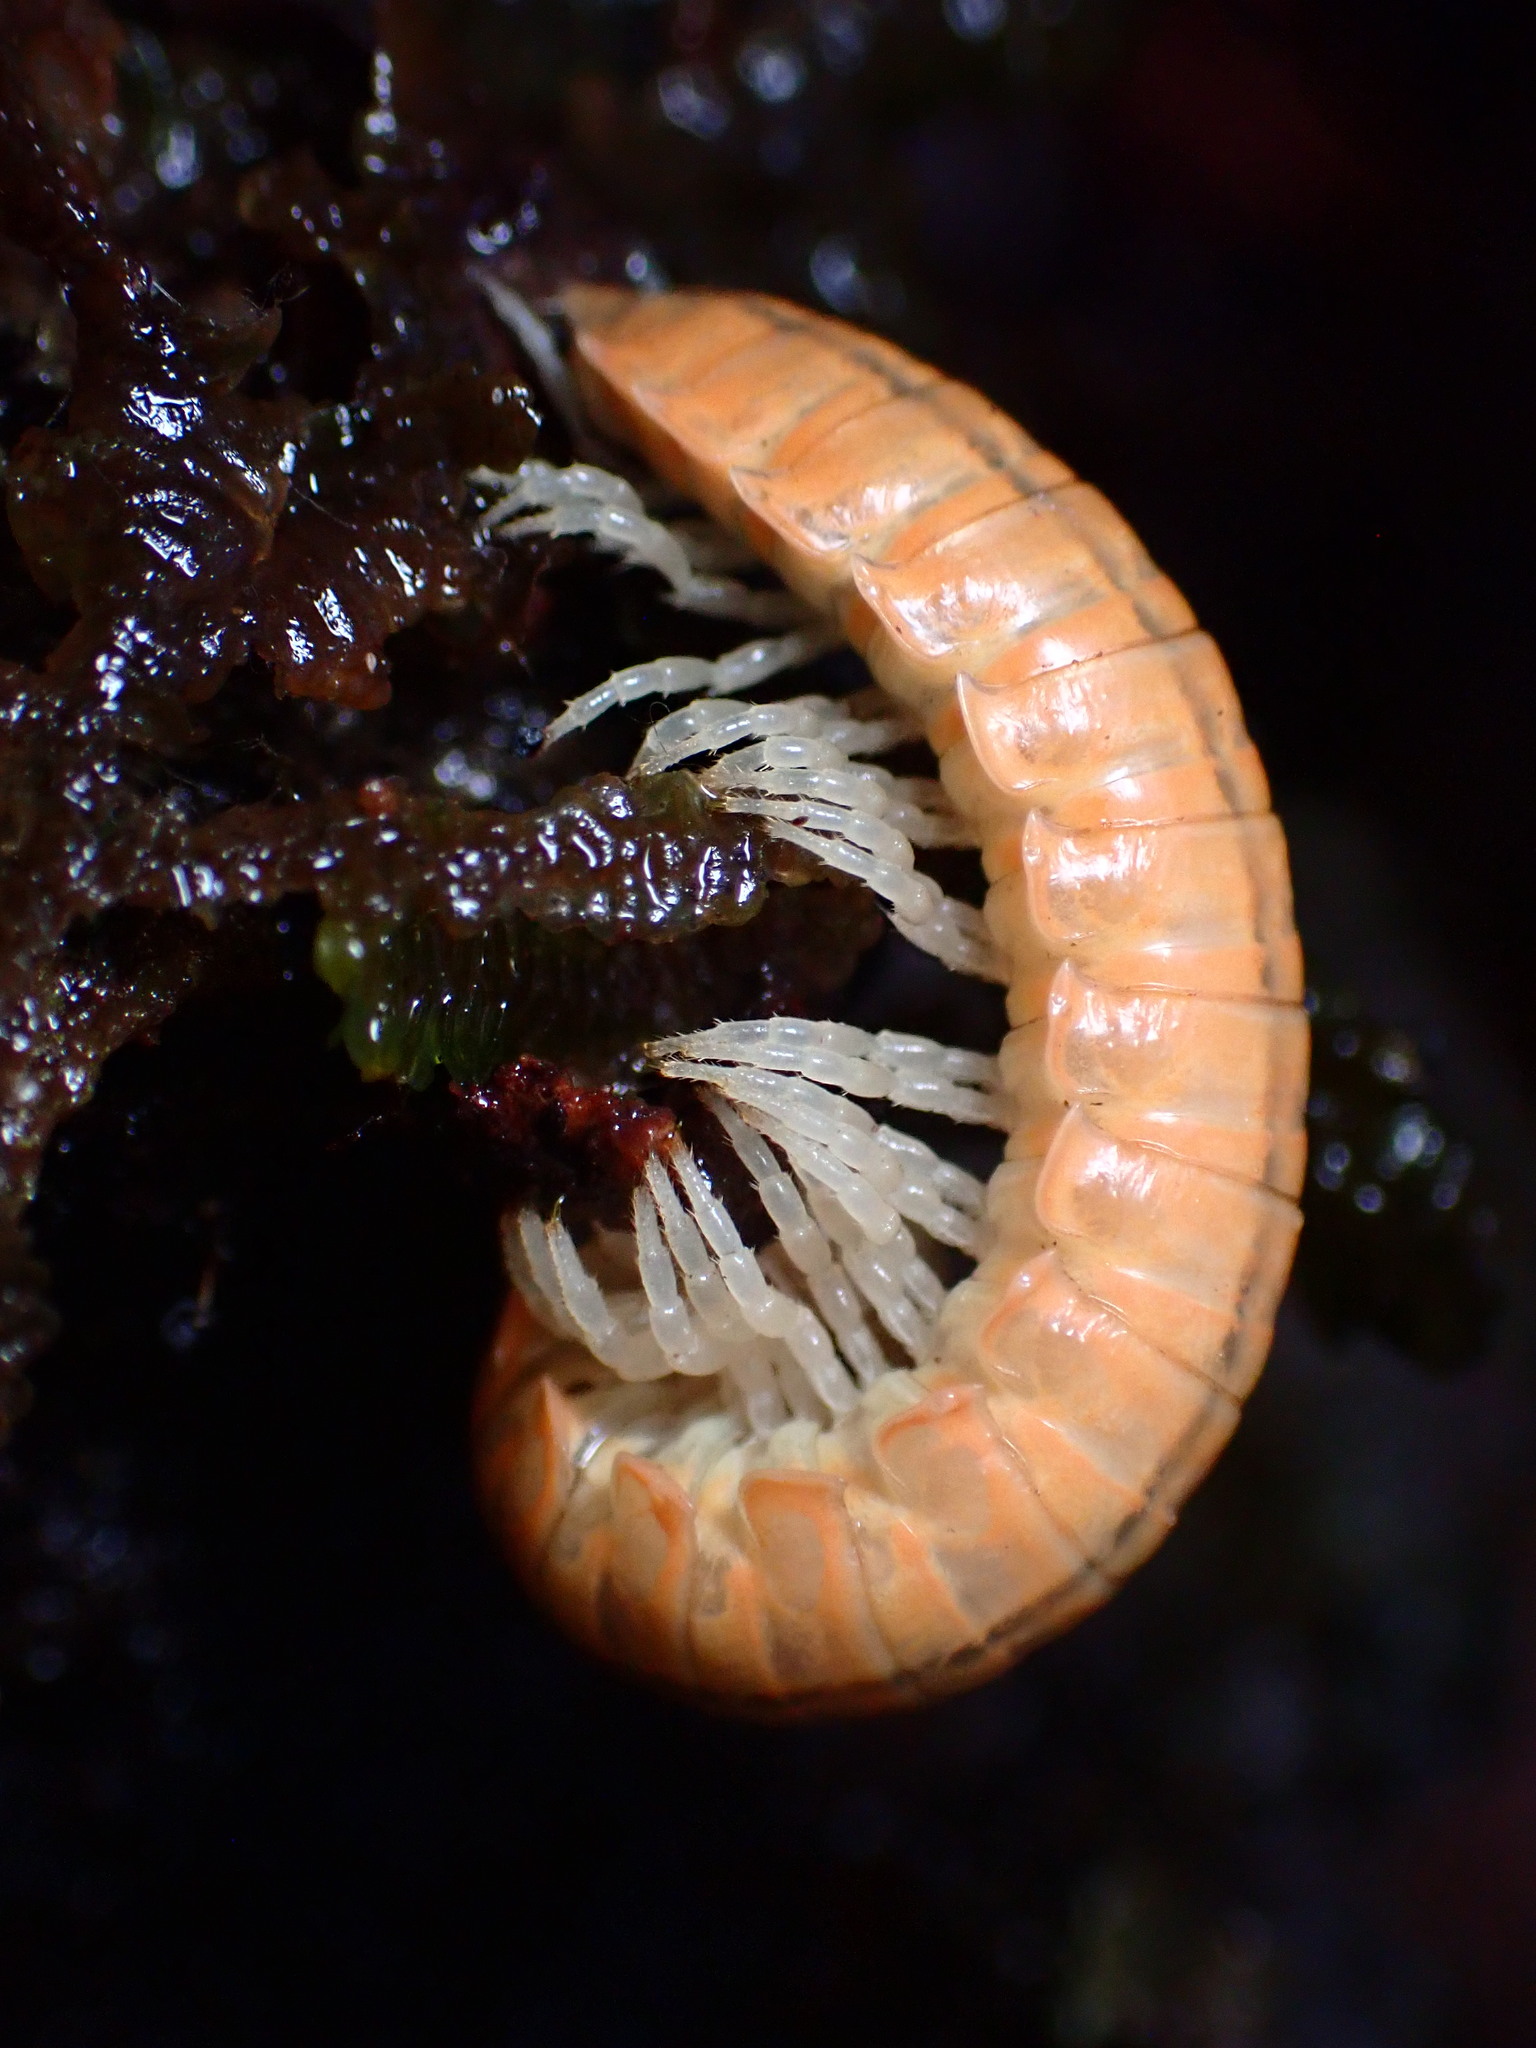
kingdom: Animalia
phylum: Arthropoda
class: Diplopoda
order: Polydesmida
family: Xystodesmidae
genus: Xystocheir
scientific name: Xystocheir dissecta
